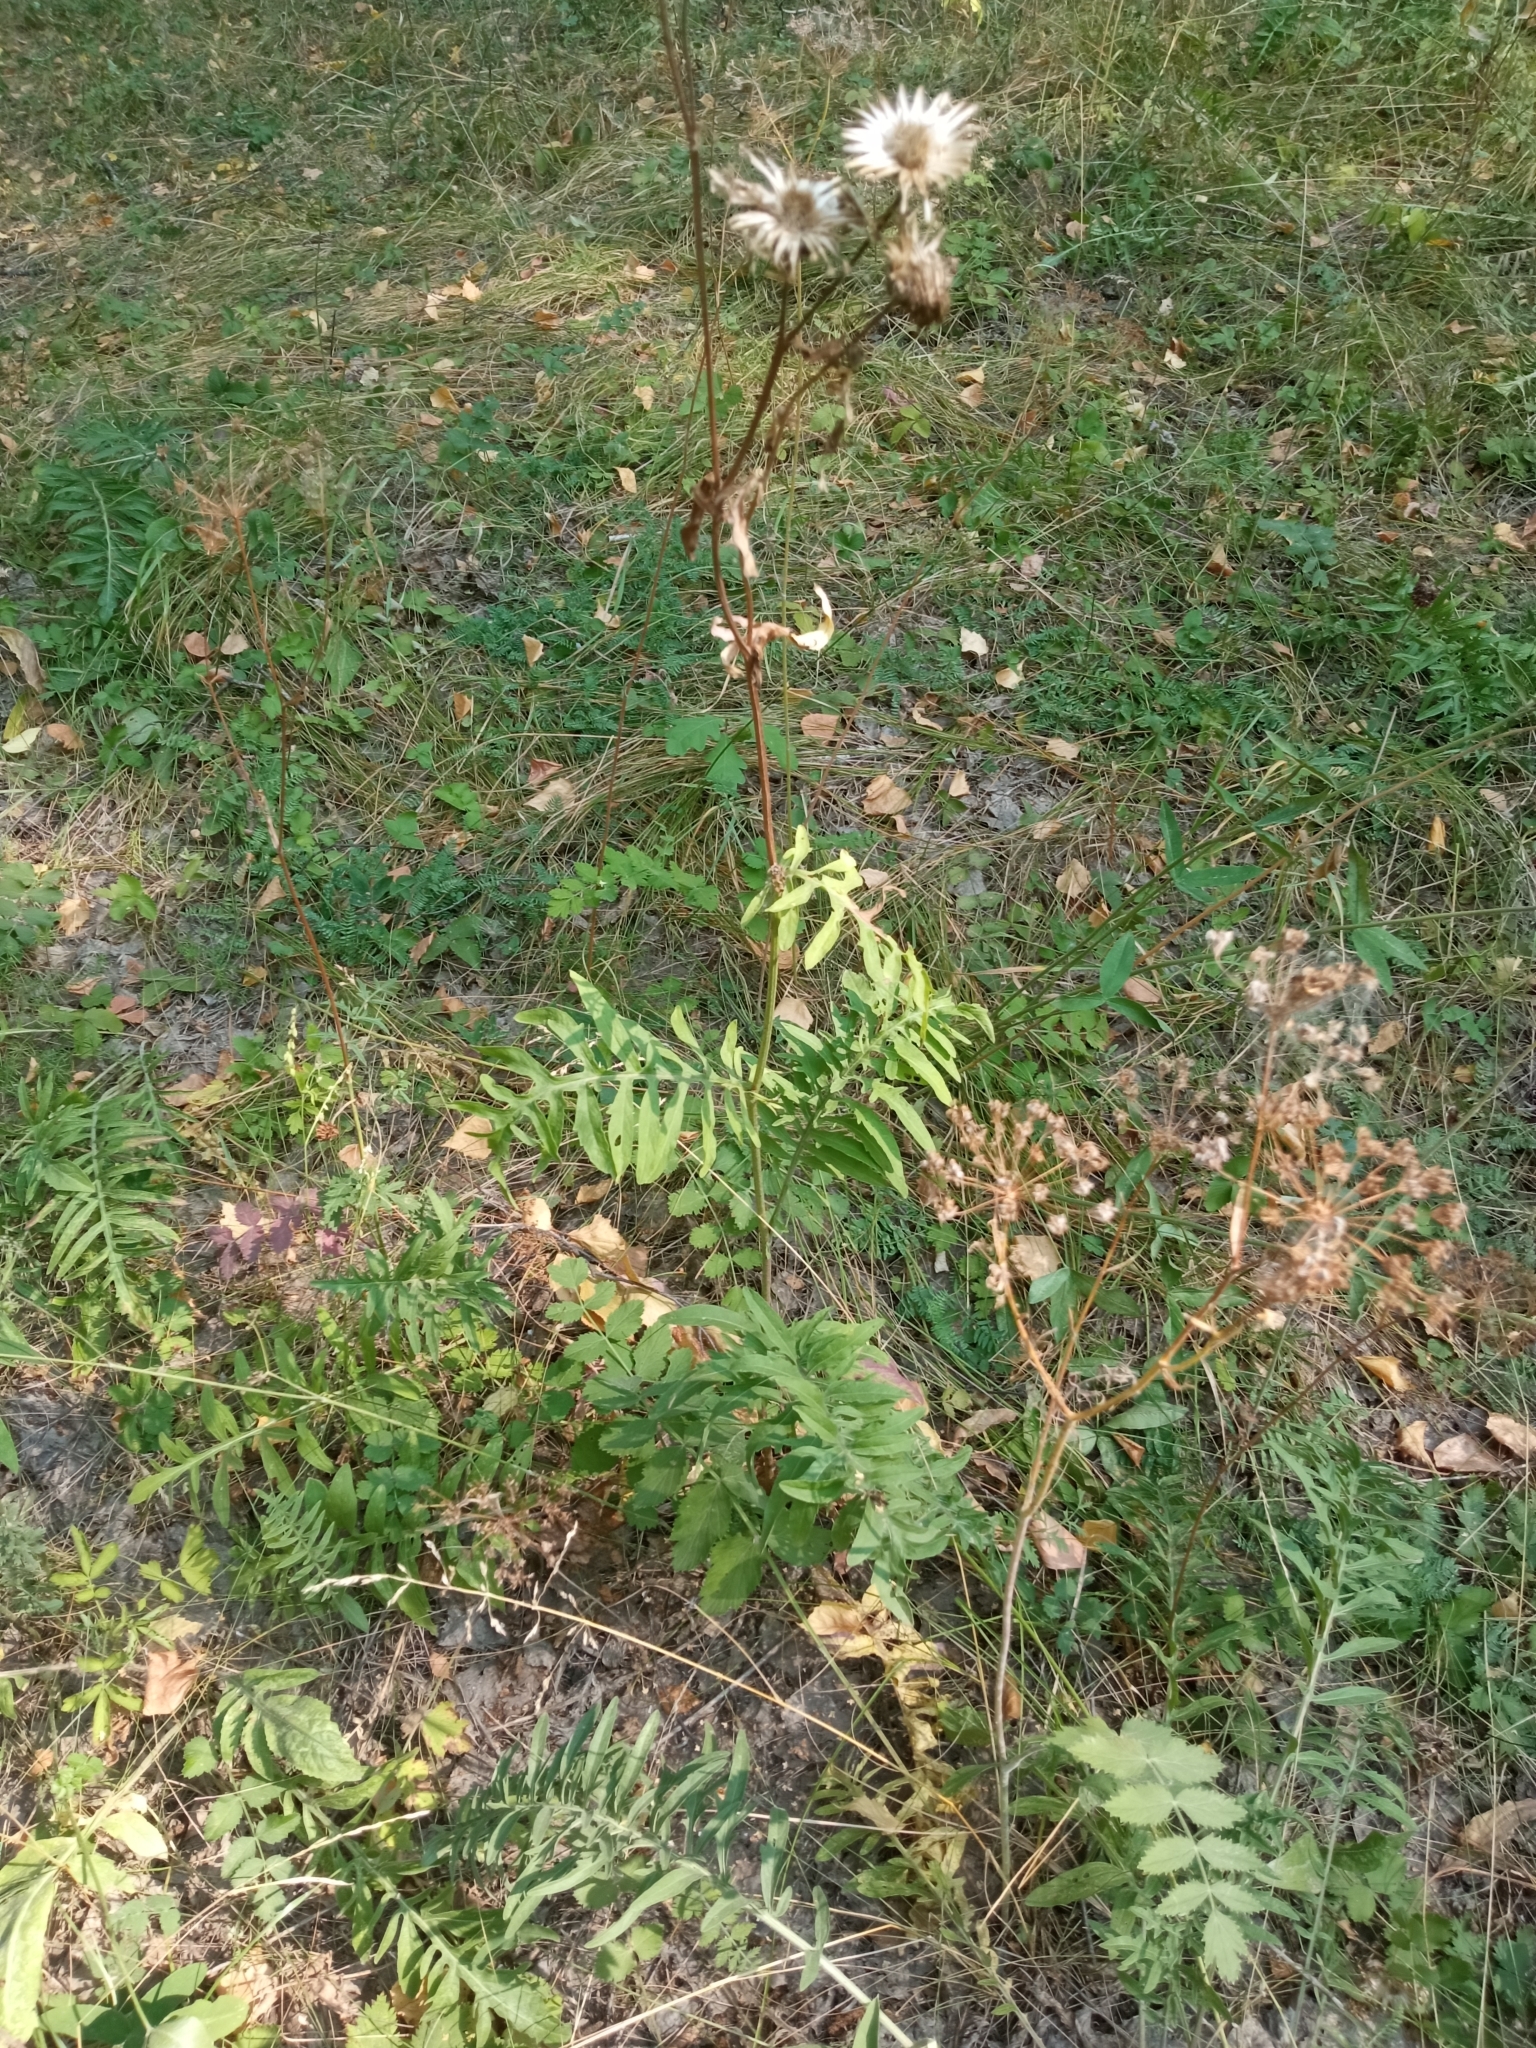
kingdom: Plantae
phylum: Tracheophyta
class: Magnoliopsida
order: Asterales
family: Asteraceae
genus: Centaurea
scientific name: Centaurea scabiosa
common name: Greater knapweed
